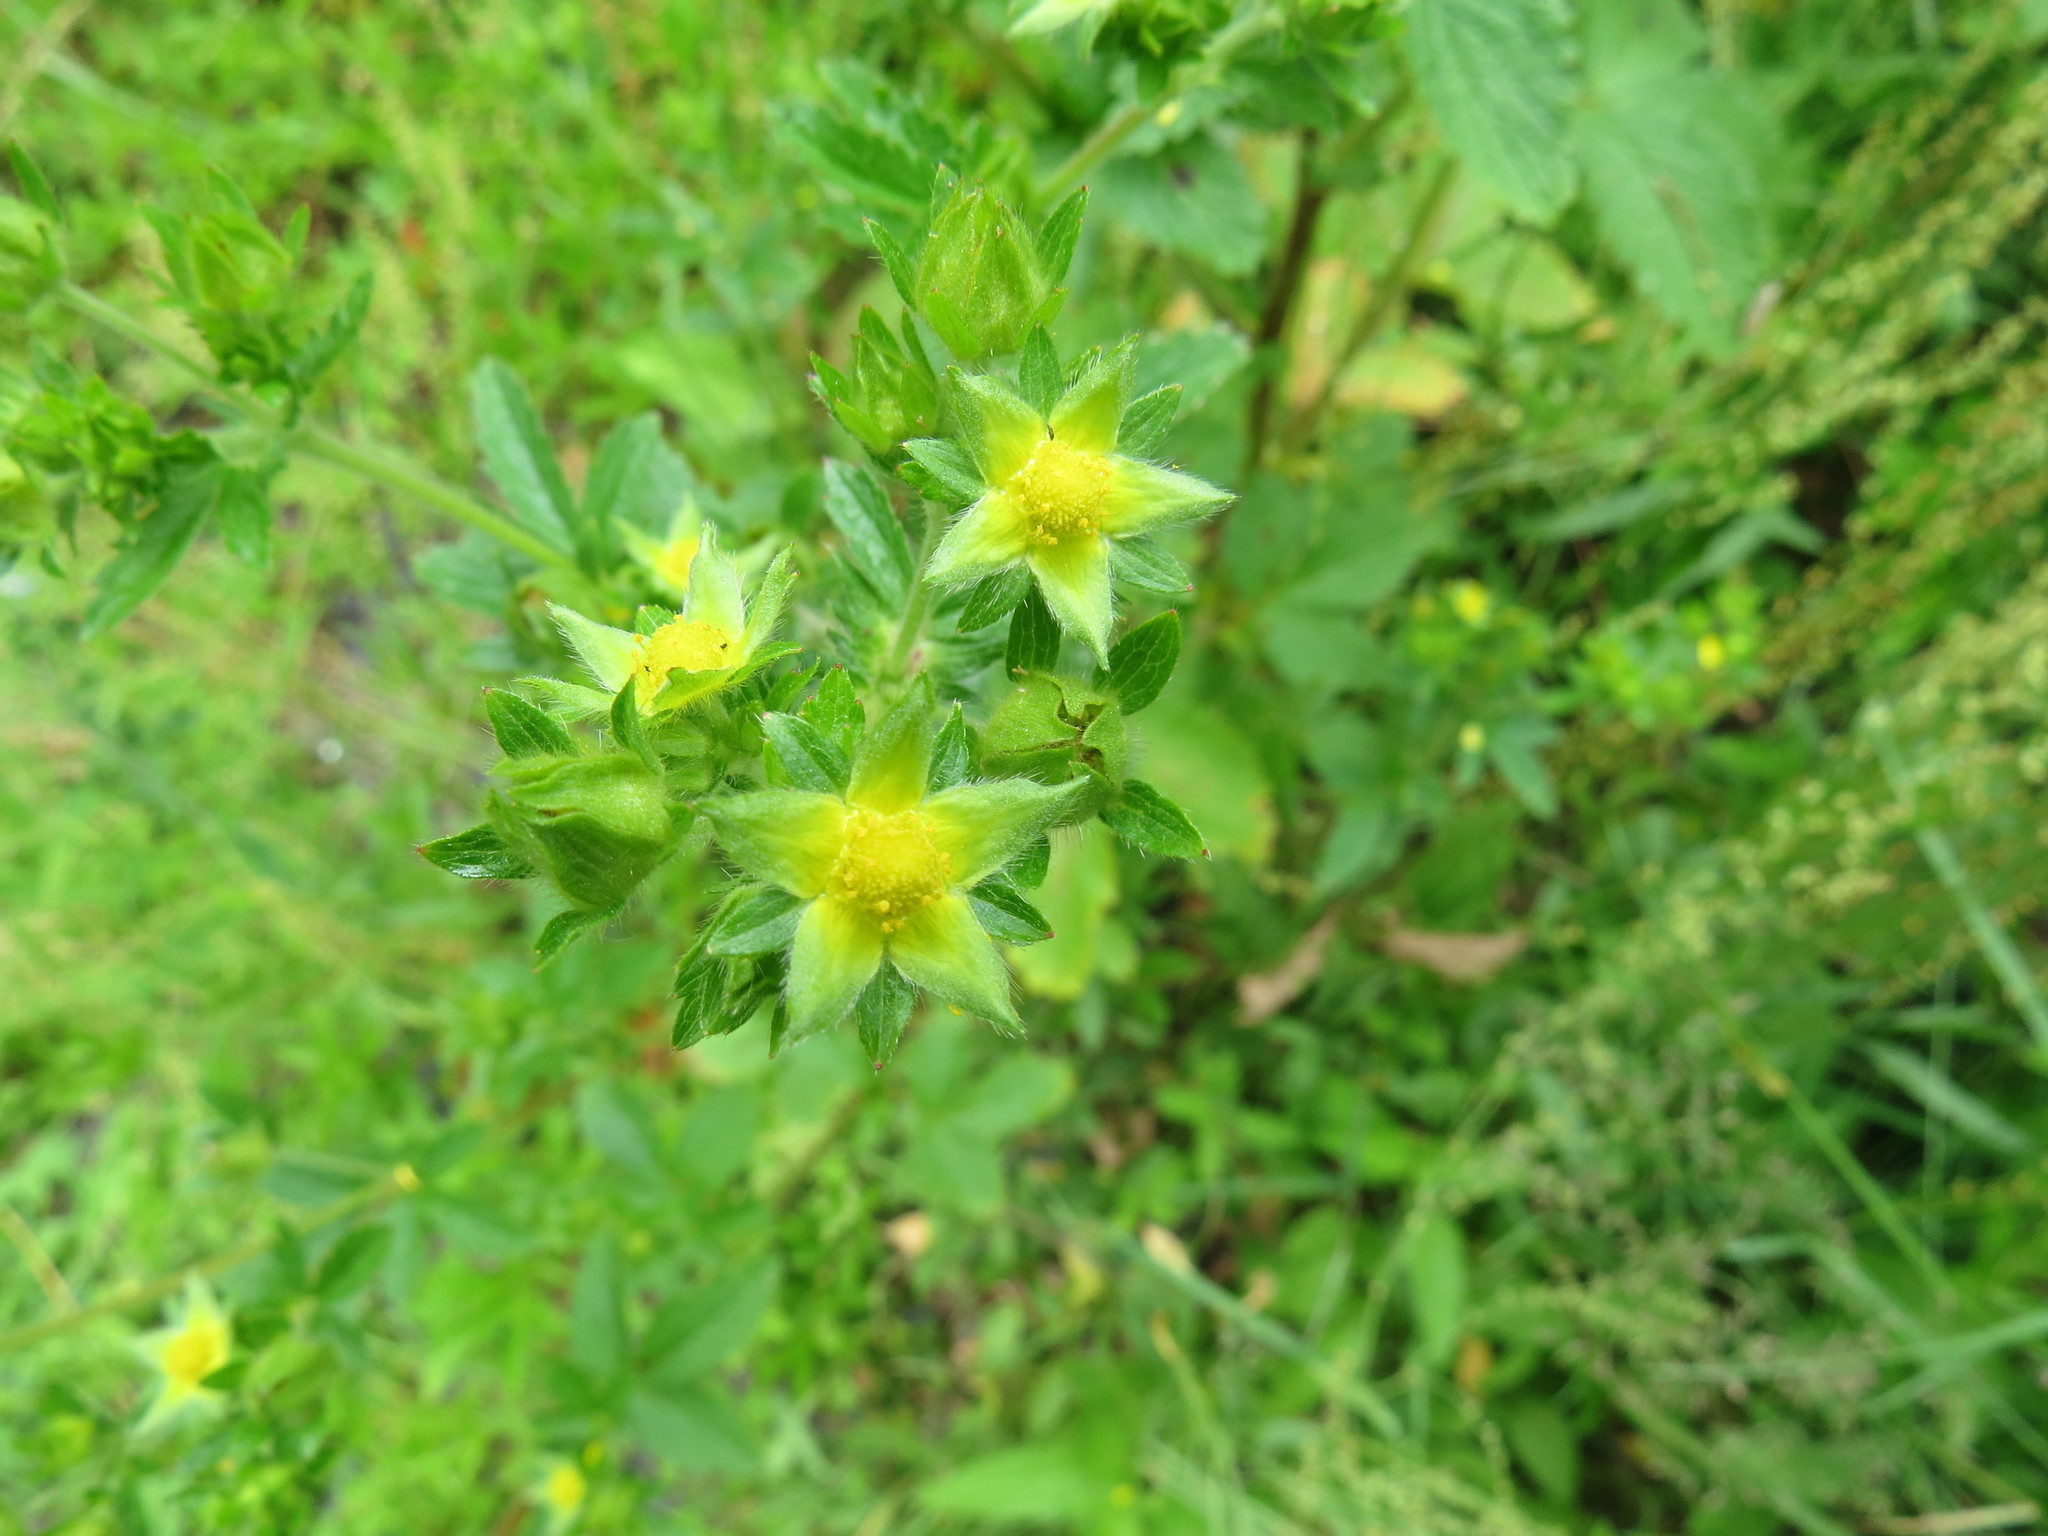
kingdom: Plantae
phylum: Tracheophyta
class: Magnoliopsida
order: Rosales
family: Rosaceae
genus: Potentilla
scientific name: Potentilla norvegica
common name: Ternate-leaved cinquefoil
